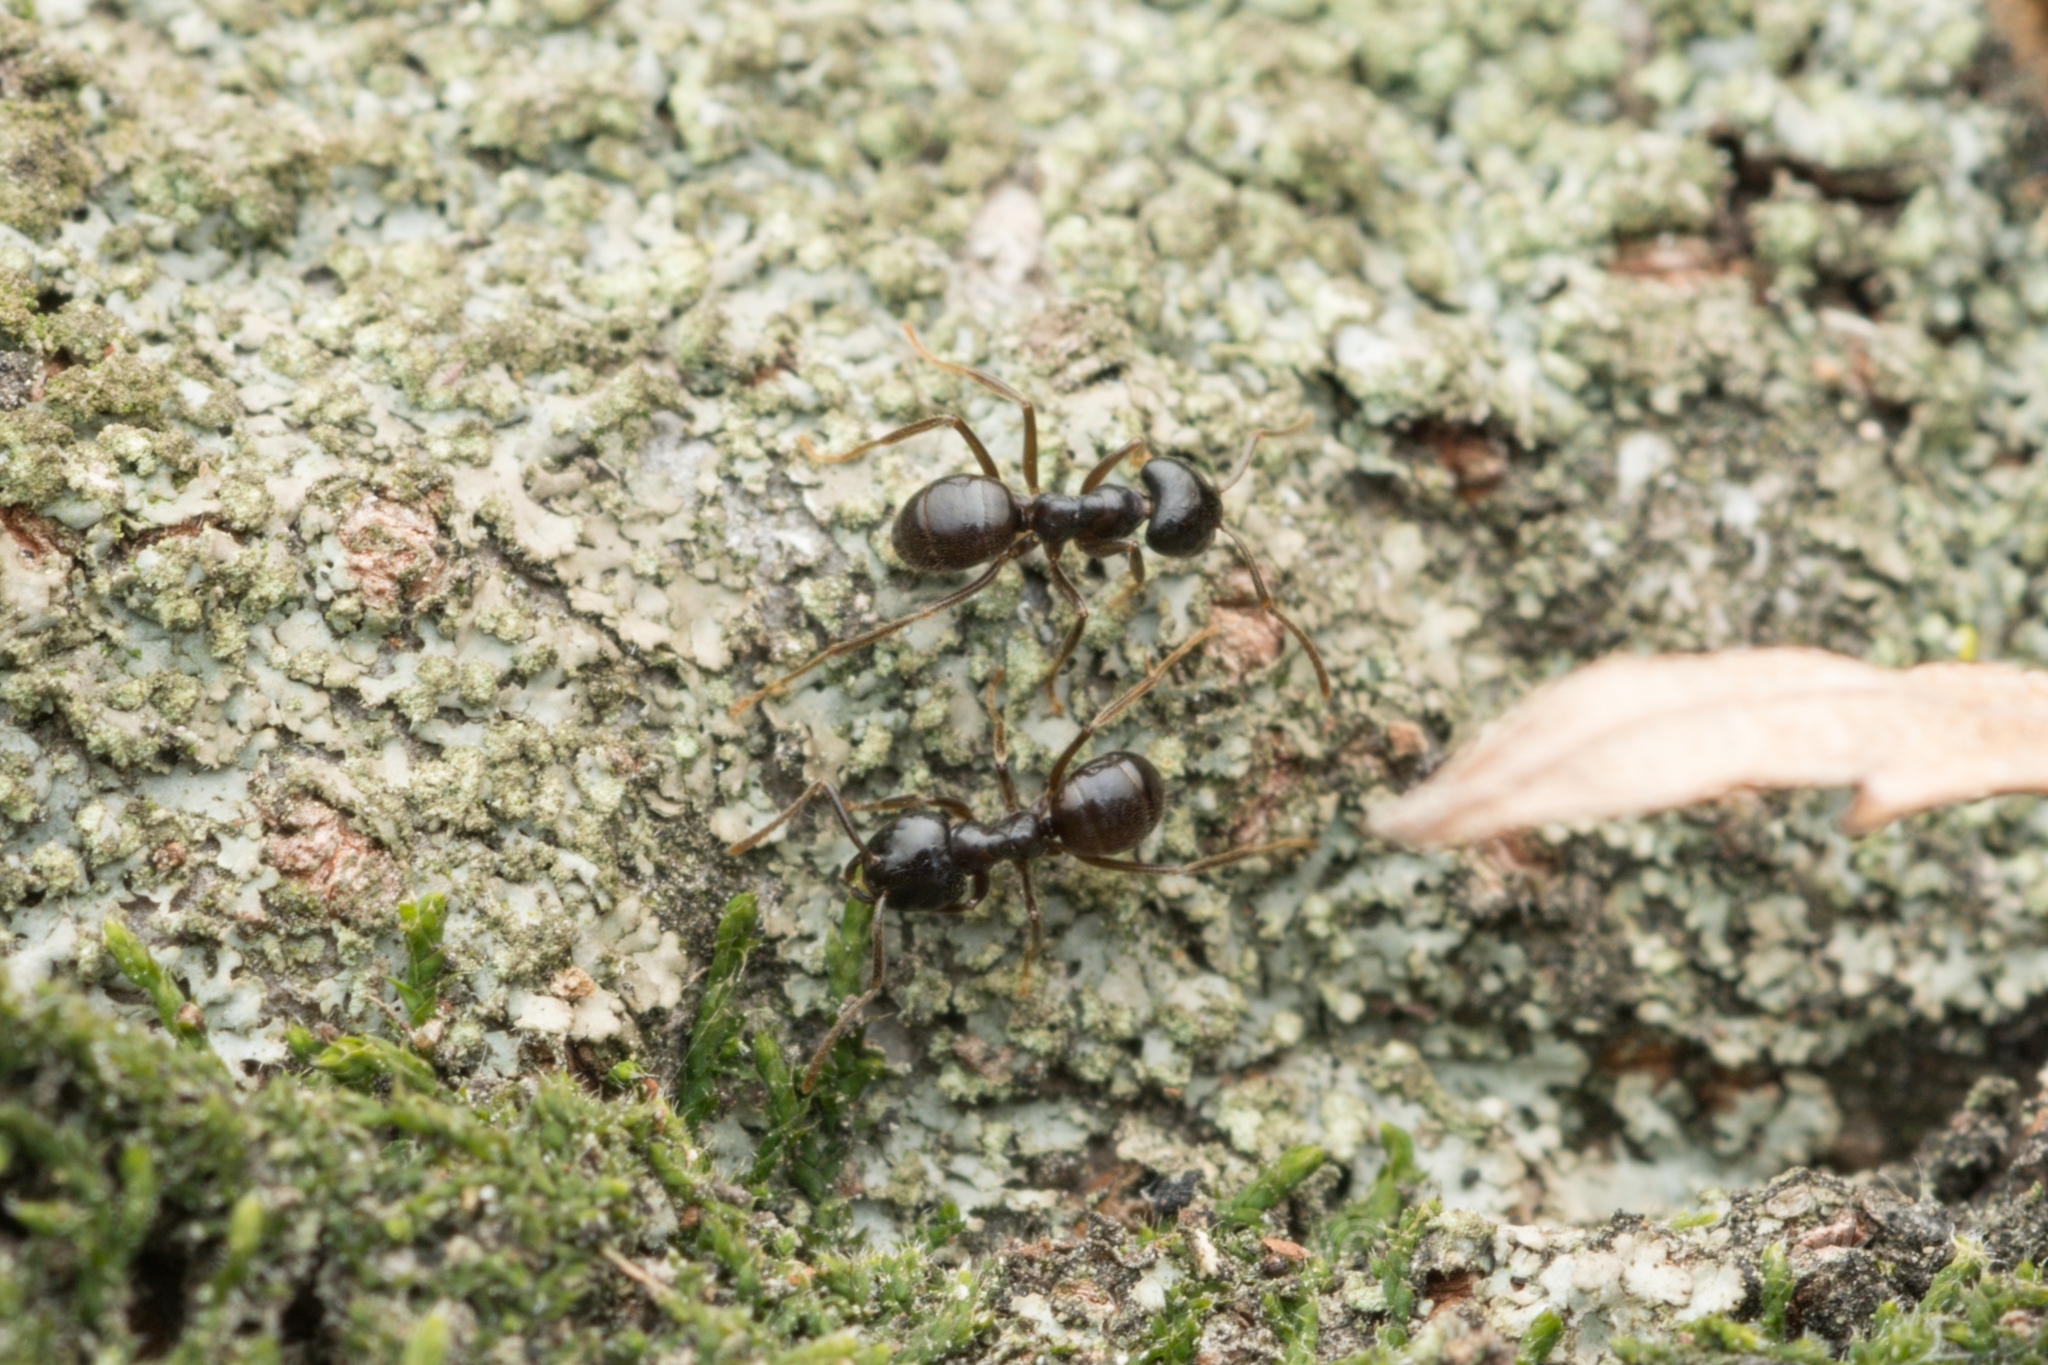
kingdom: Animalia
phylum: Arthropoda
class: Insecta
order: Hymenoptera
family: Formicidae
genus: Lasius
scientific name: Lasius spathepus
